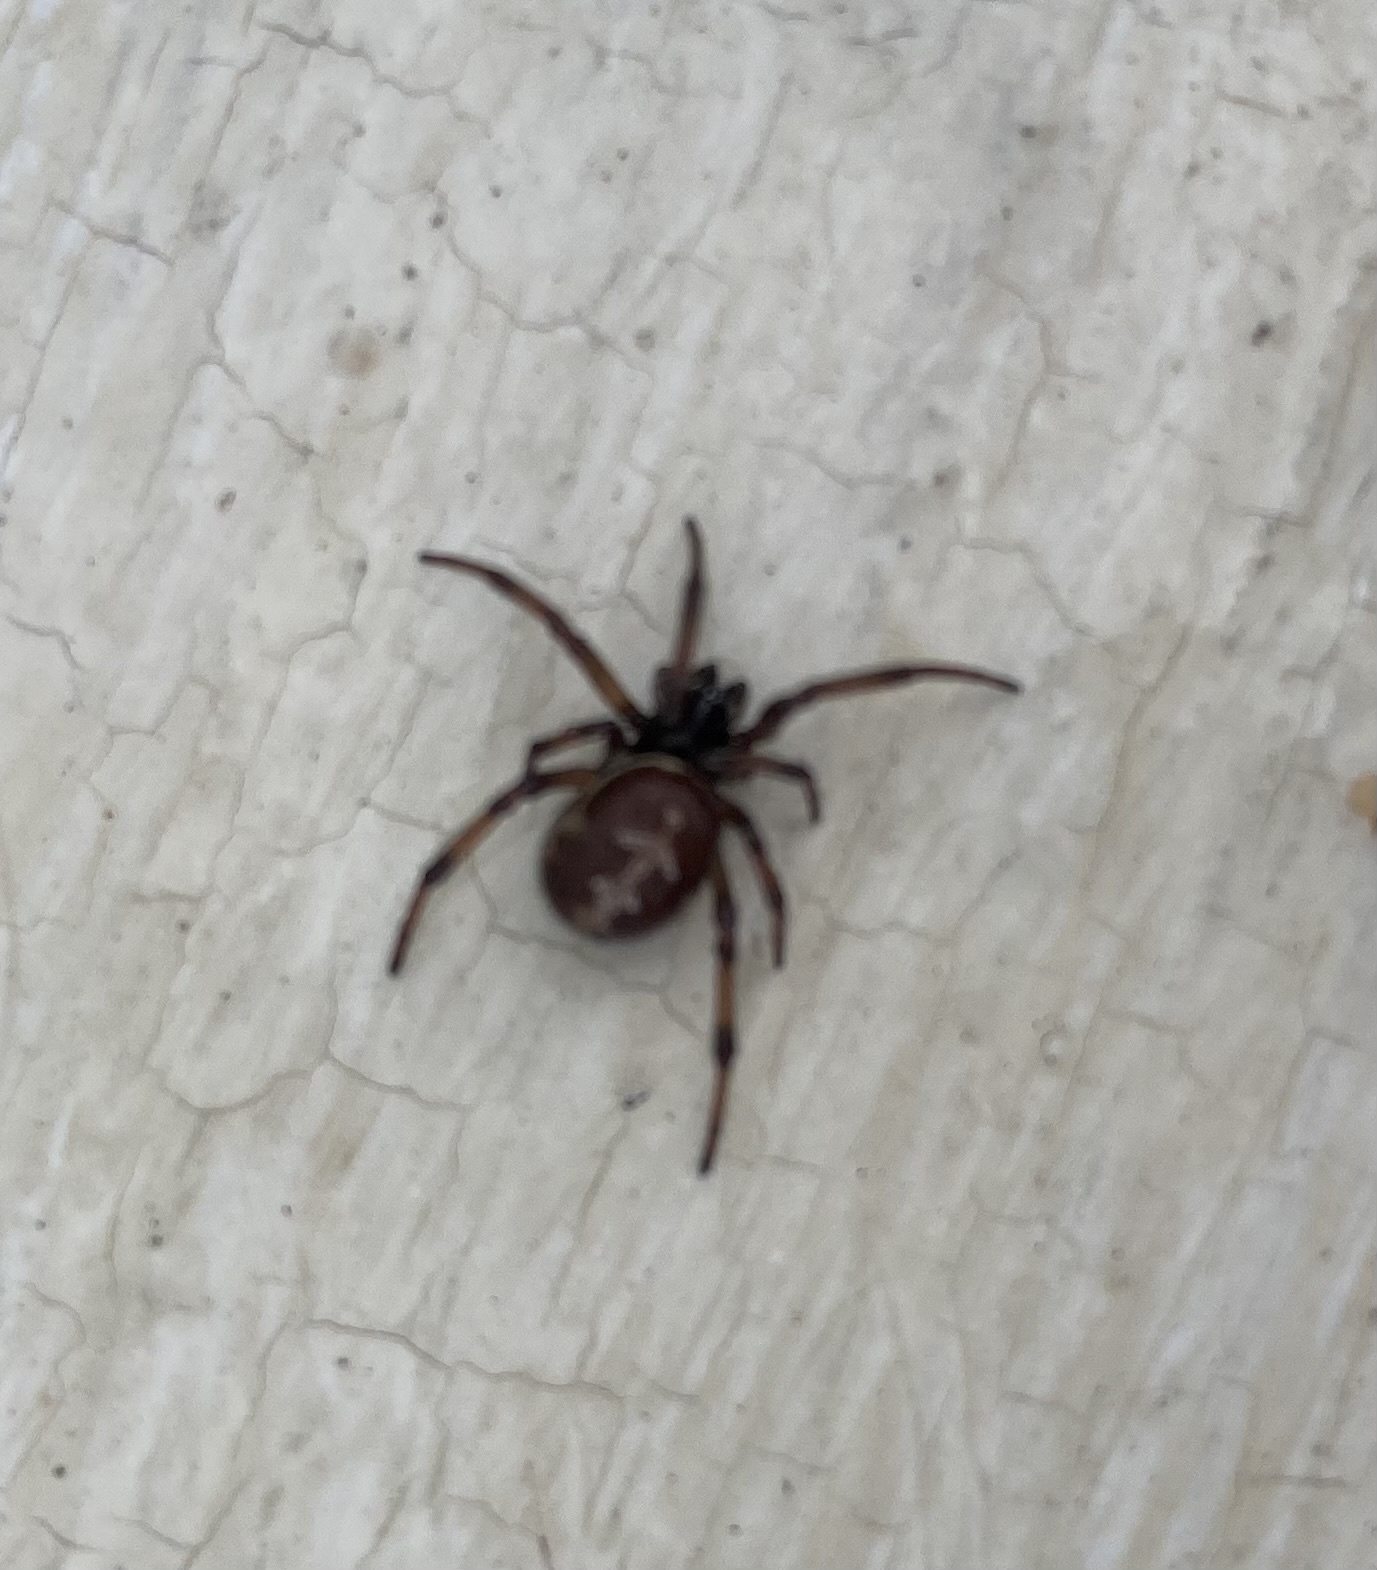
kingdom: Animalia
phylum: Arthropoda
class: Arachnida
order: Araneae
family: Theridiidae
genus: Steatoda
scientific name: Steatoda paykulliana
